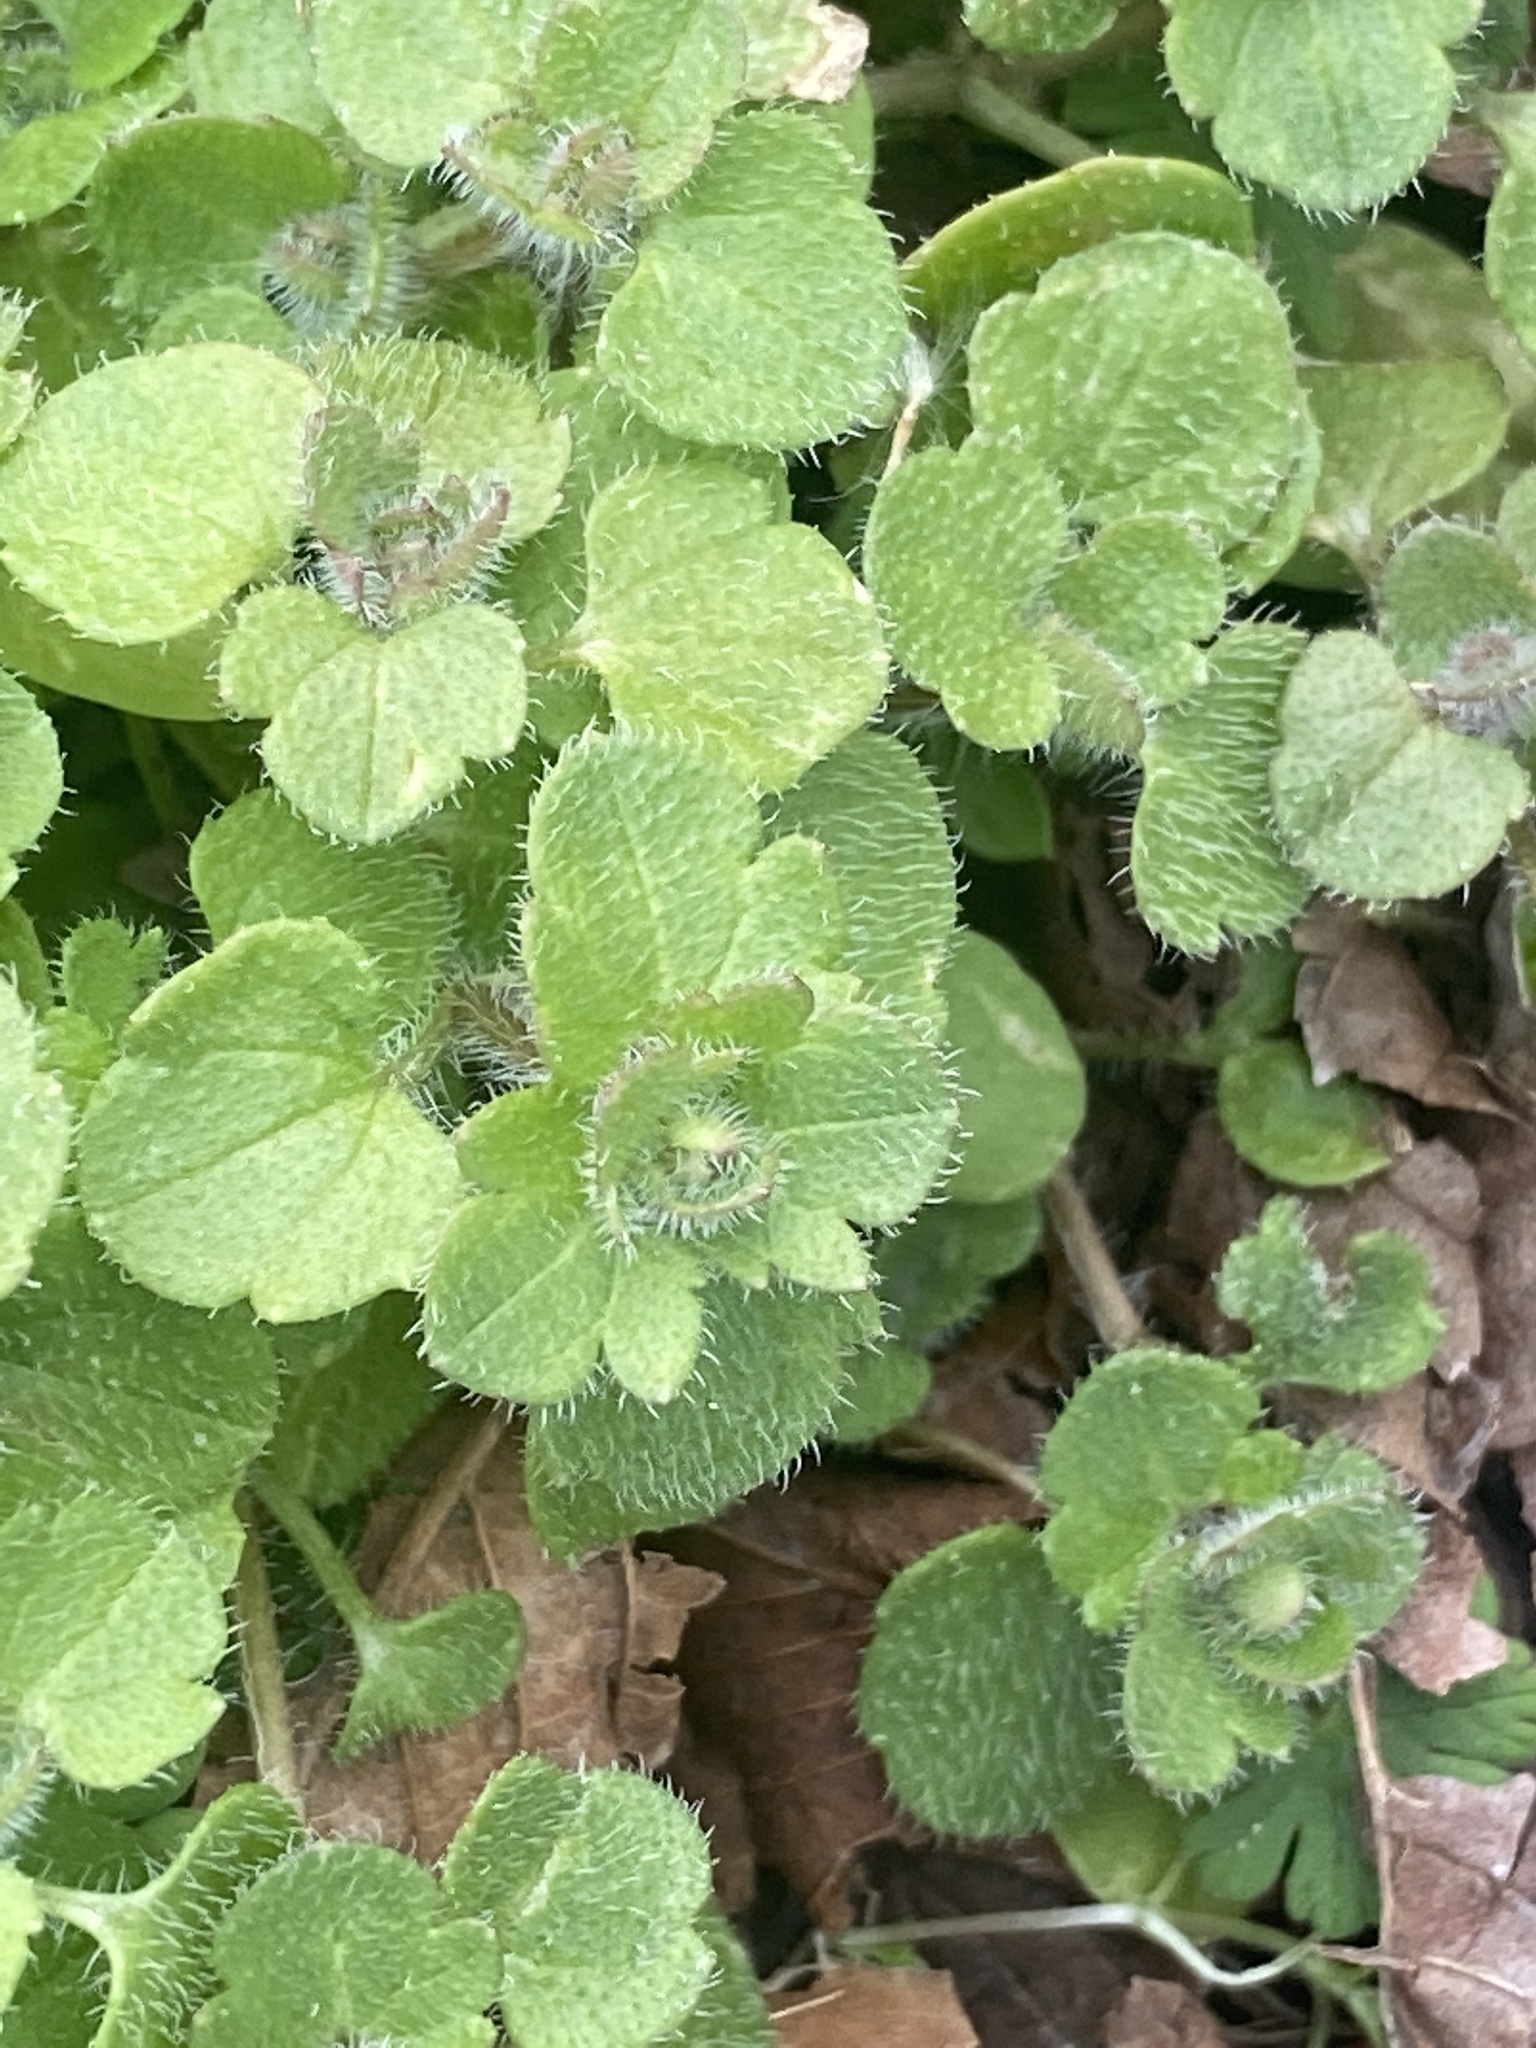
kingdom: Plantae
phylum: Tracheophyta
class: Magnoliopsida
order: Lamiales
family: Plantaginaceae
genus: Veronica
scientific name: Veronica hederifolia
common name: Ivy-leaved speedwell
